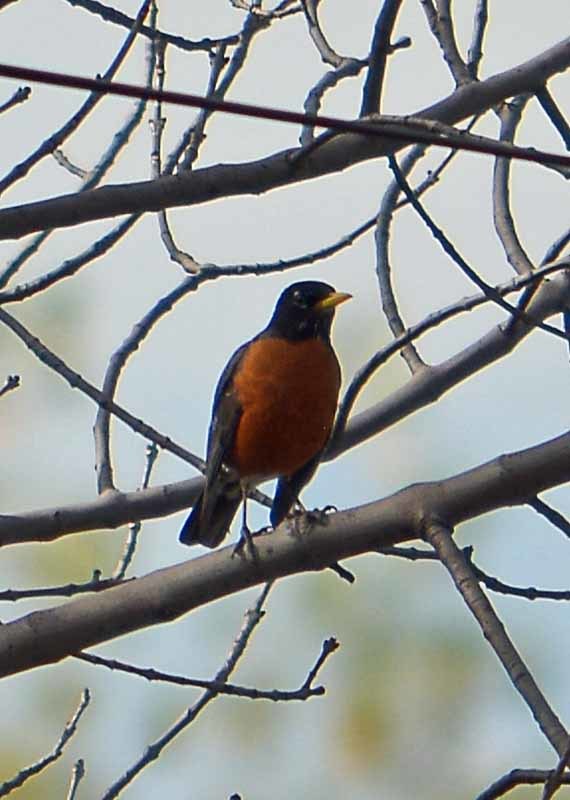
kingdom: Animalia
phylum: Chordata
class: Aves
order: Passeriformes
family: Turdidae
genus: Turdus
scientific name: Turdus migratorius
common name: American robin
